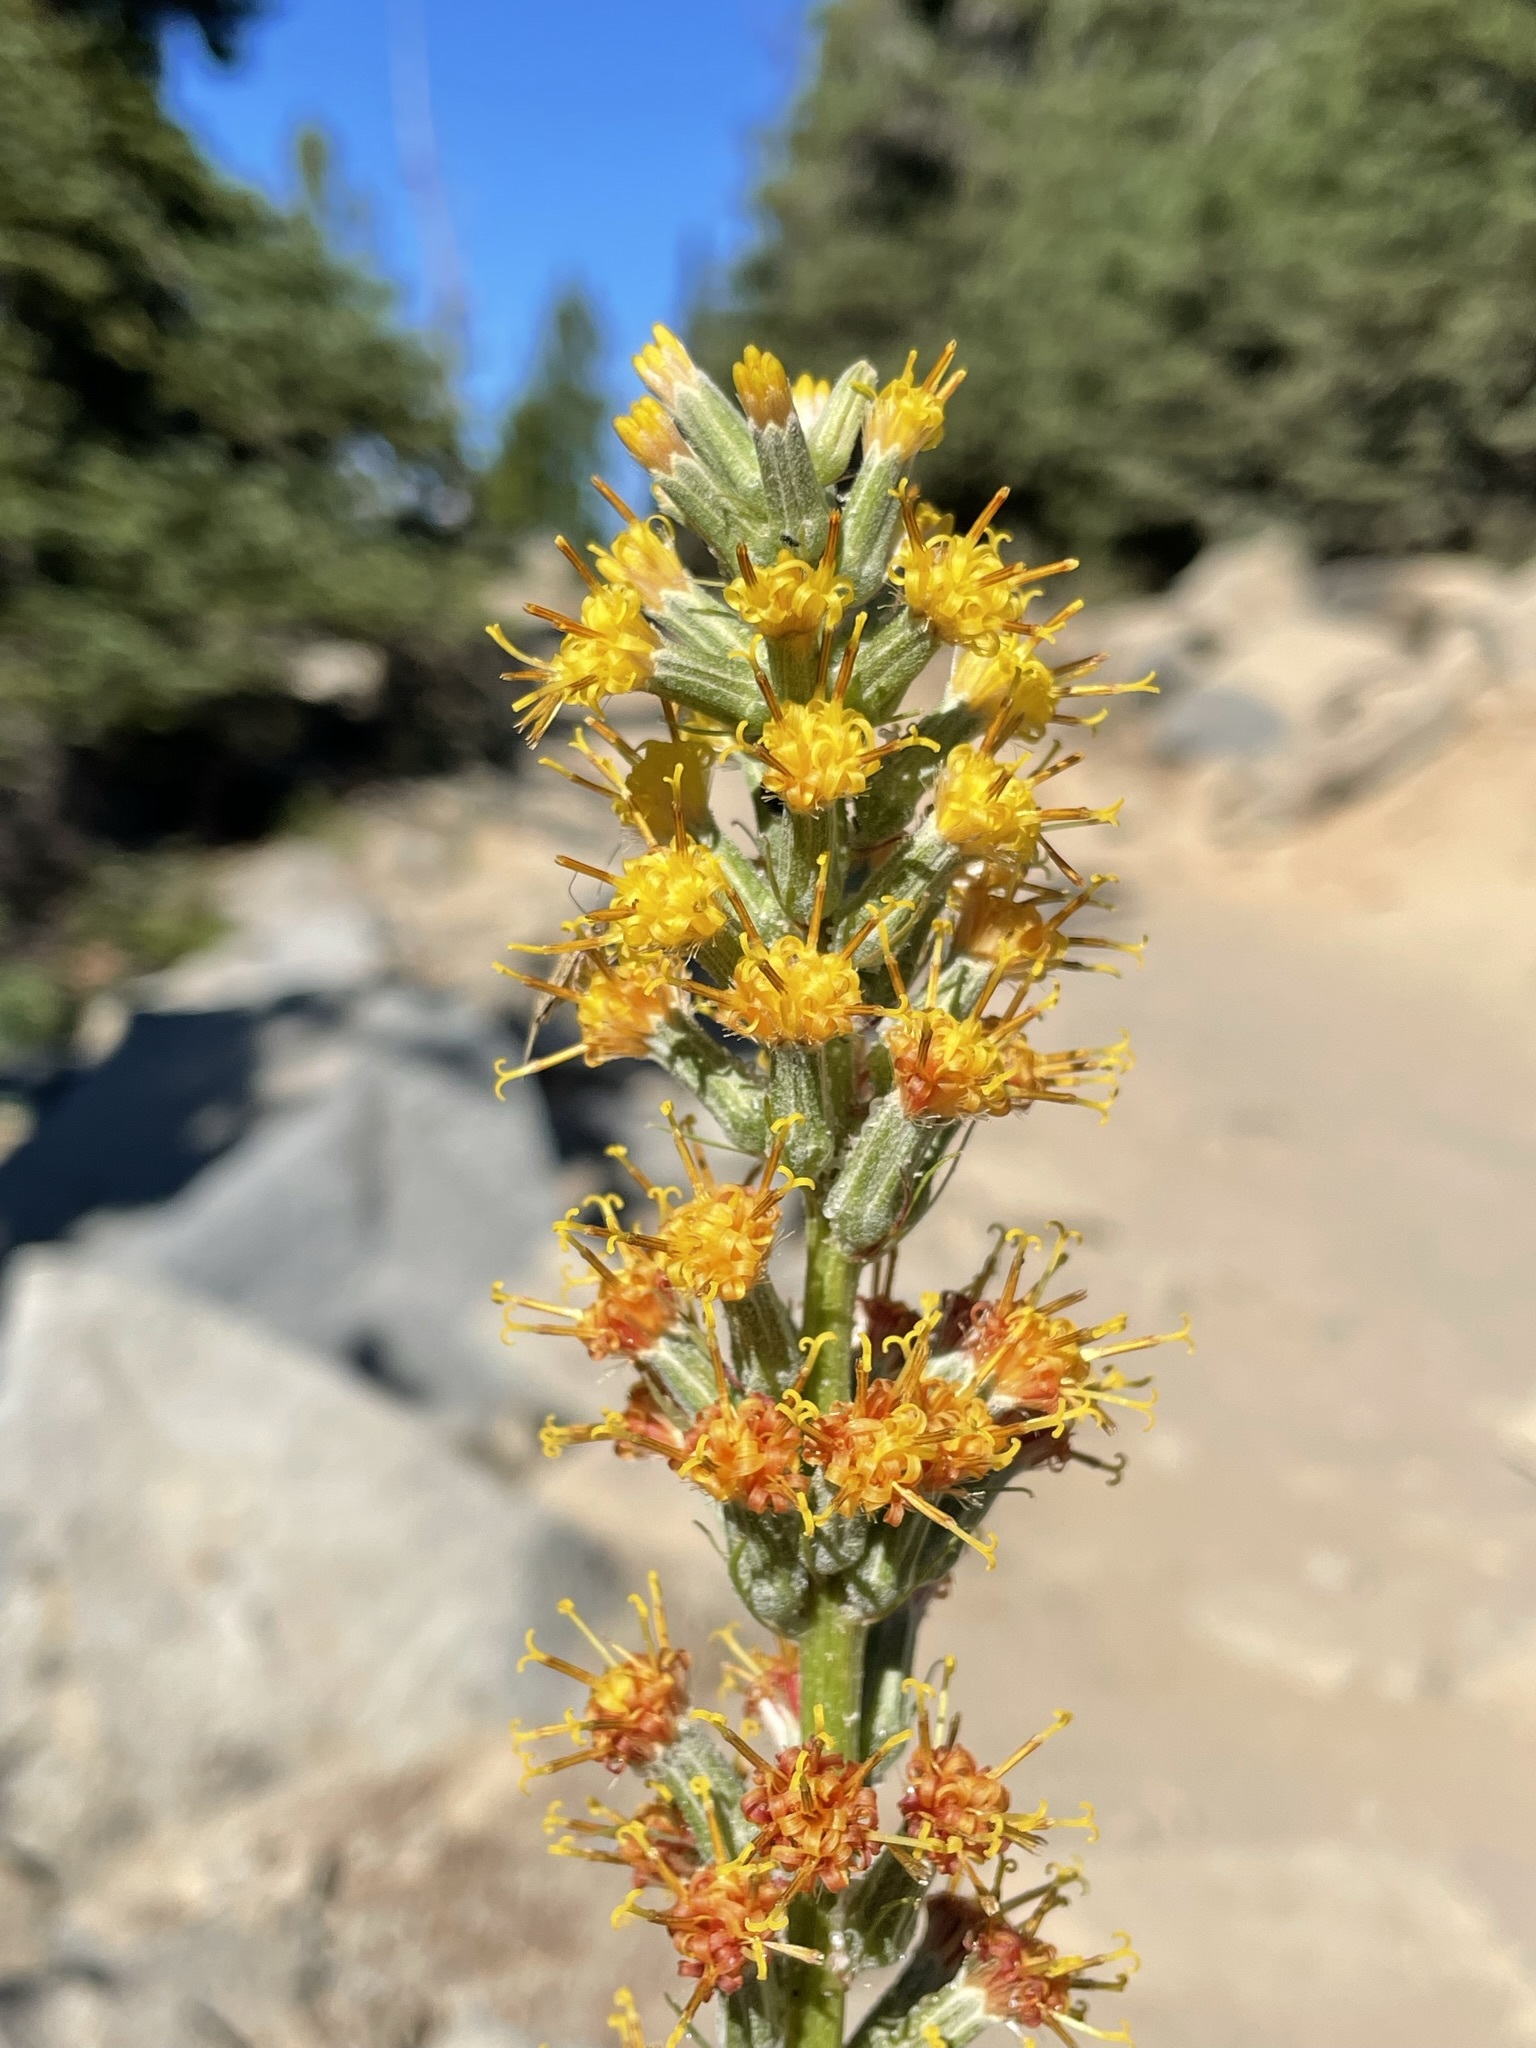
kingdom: Plantae
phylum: Tracheophyta
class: Magnoliopsida
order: Asterales
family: Asteraceae
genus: Rainiera
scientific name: Rainiera stricta
